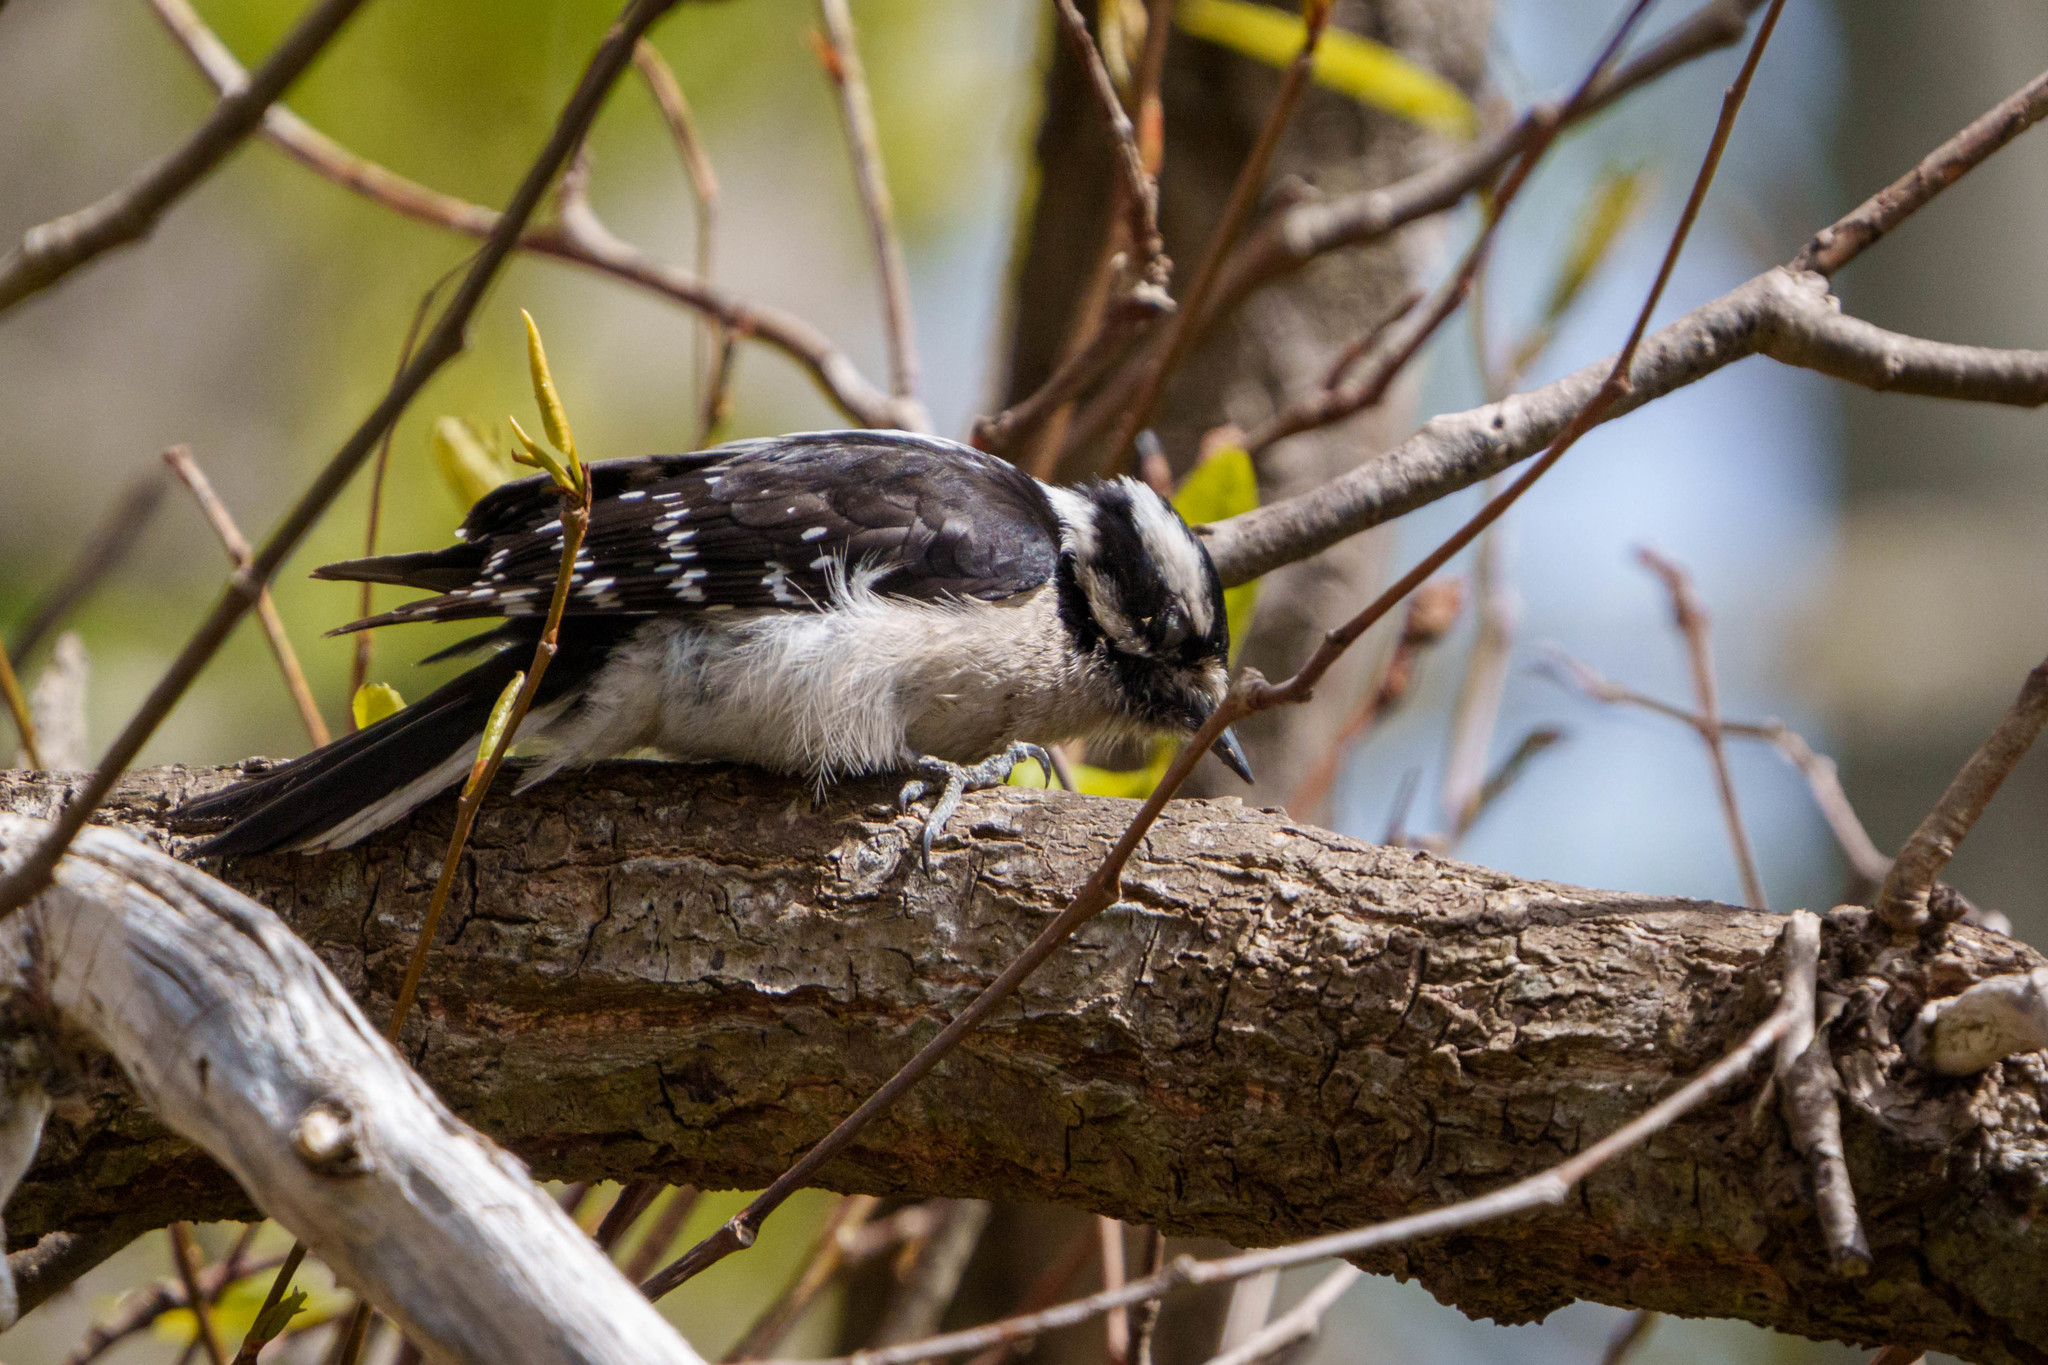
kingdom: Animalia
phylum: Chordata
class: Aves
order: Piciformes
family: Picidae
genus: Dryobates
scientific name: Dryobates pubescens
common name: Downy woodpecker
